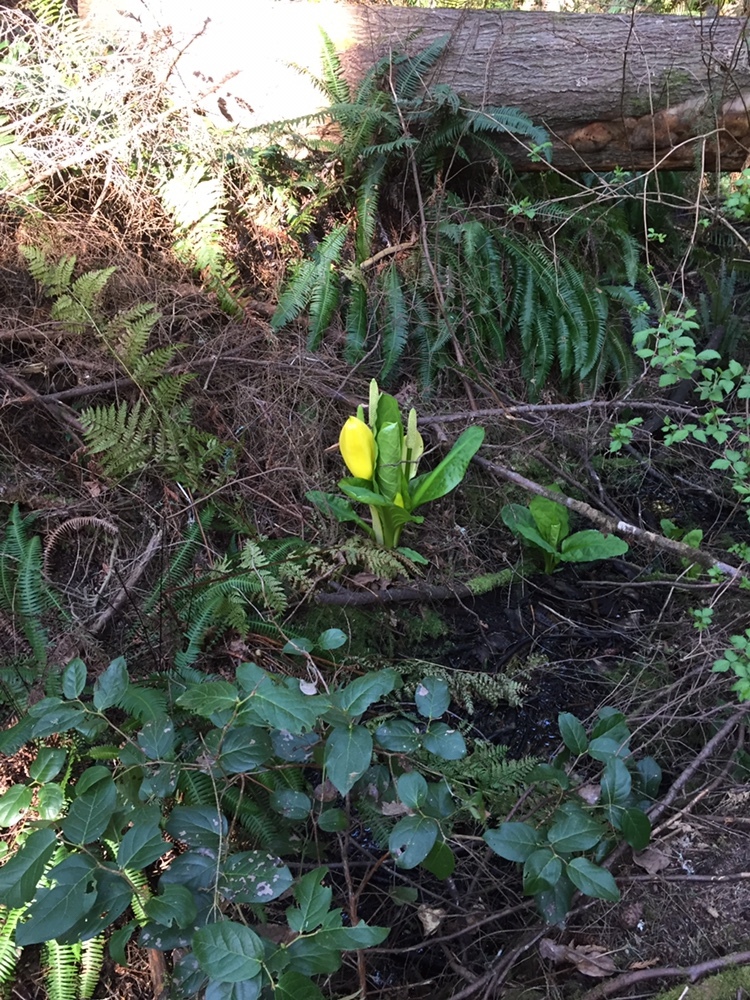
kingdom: Plantae
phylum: Tracheophyta
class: Liliopsida
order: Alismatales
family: Araceae
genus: Lysichiton
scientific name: Lysichiton americanus
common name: American skunk cabbage
